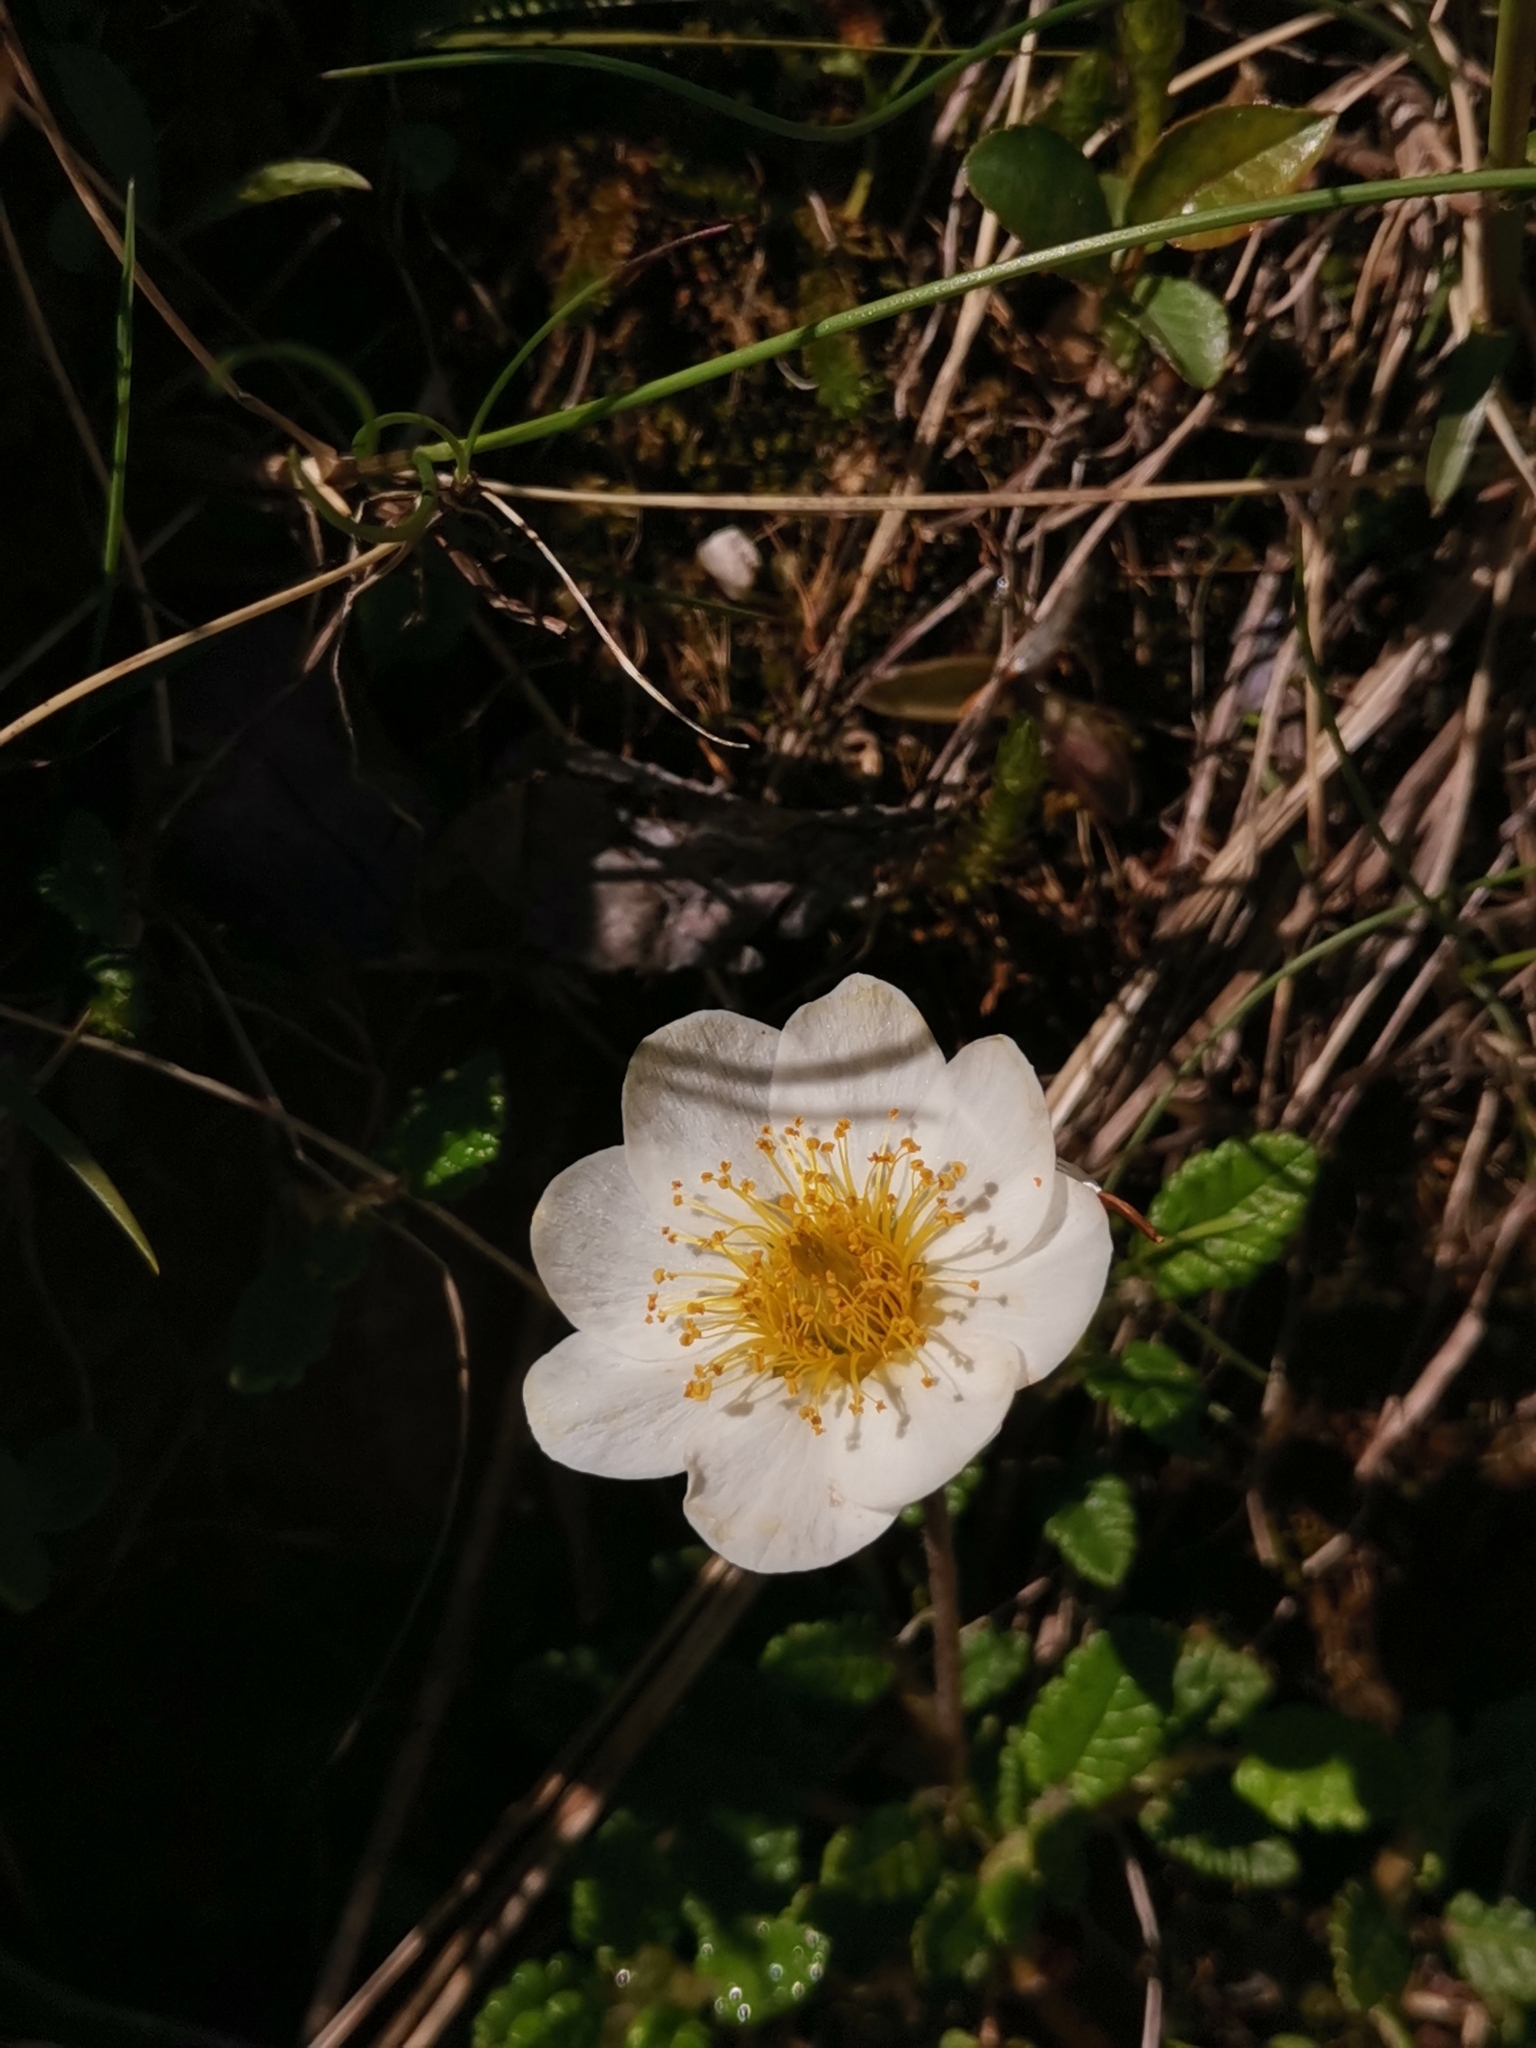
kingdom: Plantae
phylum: Tracheophyta
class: Magnoliopsida
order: Rosales
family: Rosaceae
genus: Dryas
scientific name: Dryas octopetala
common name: Eight-petal mountain-avens
